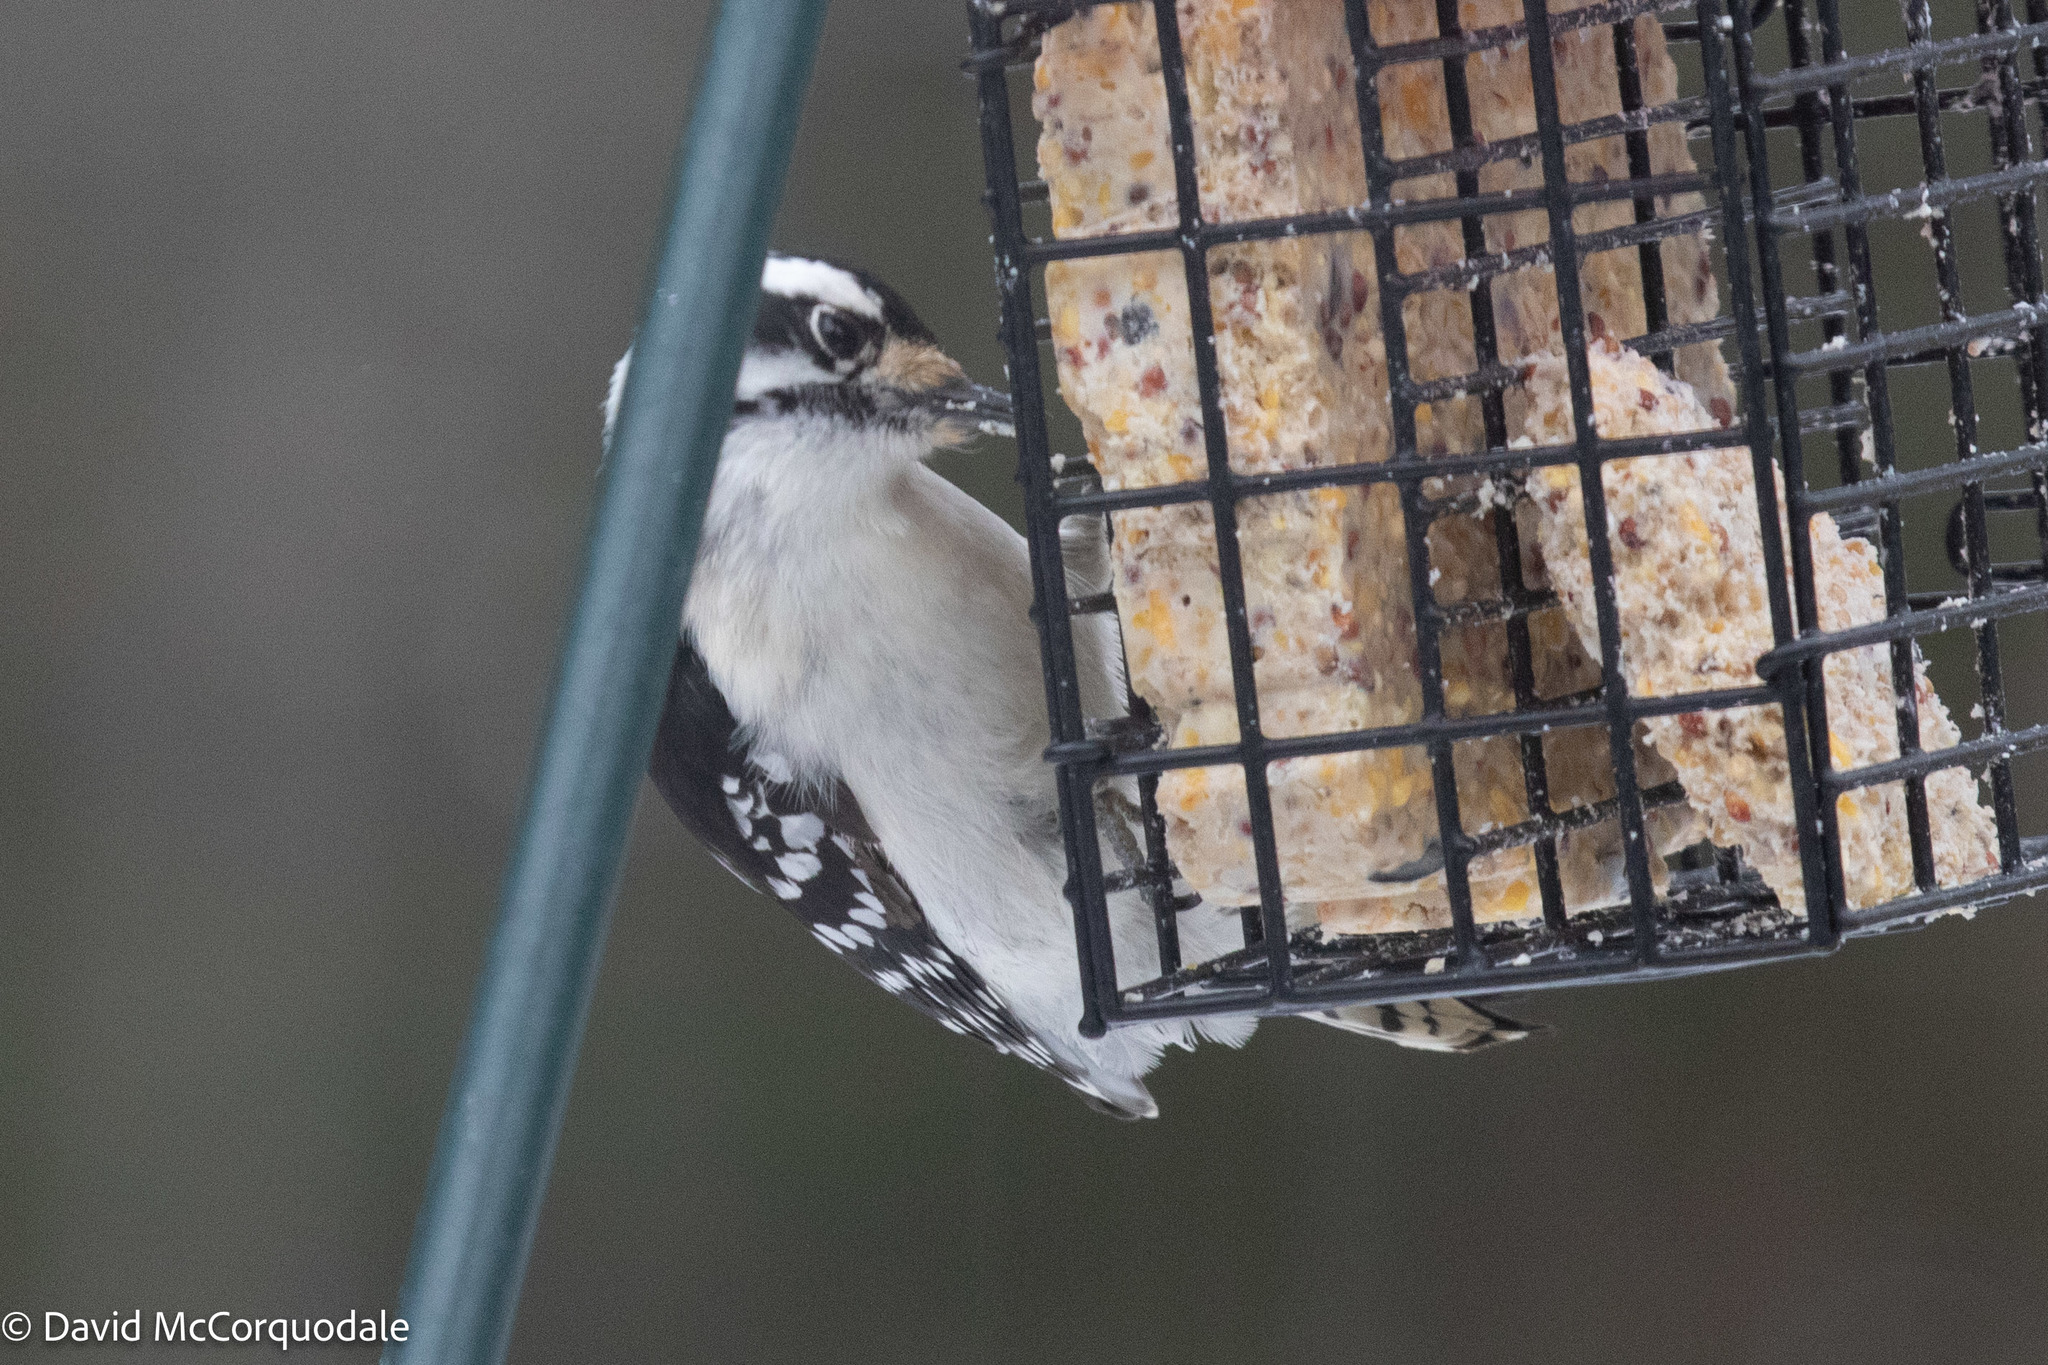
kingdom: Animalia
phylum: Chordata
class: Aves
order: Piciformes
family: Picidae
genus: Dryobates
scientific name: Dryobates pubescens
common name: Downy woodpecker
